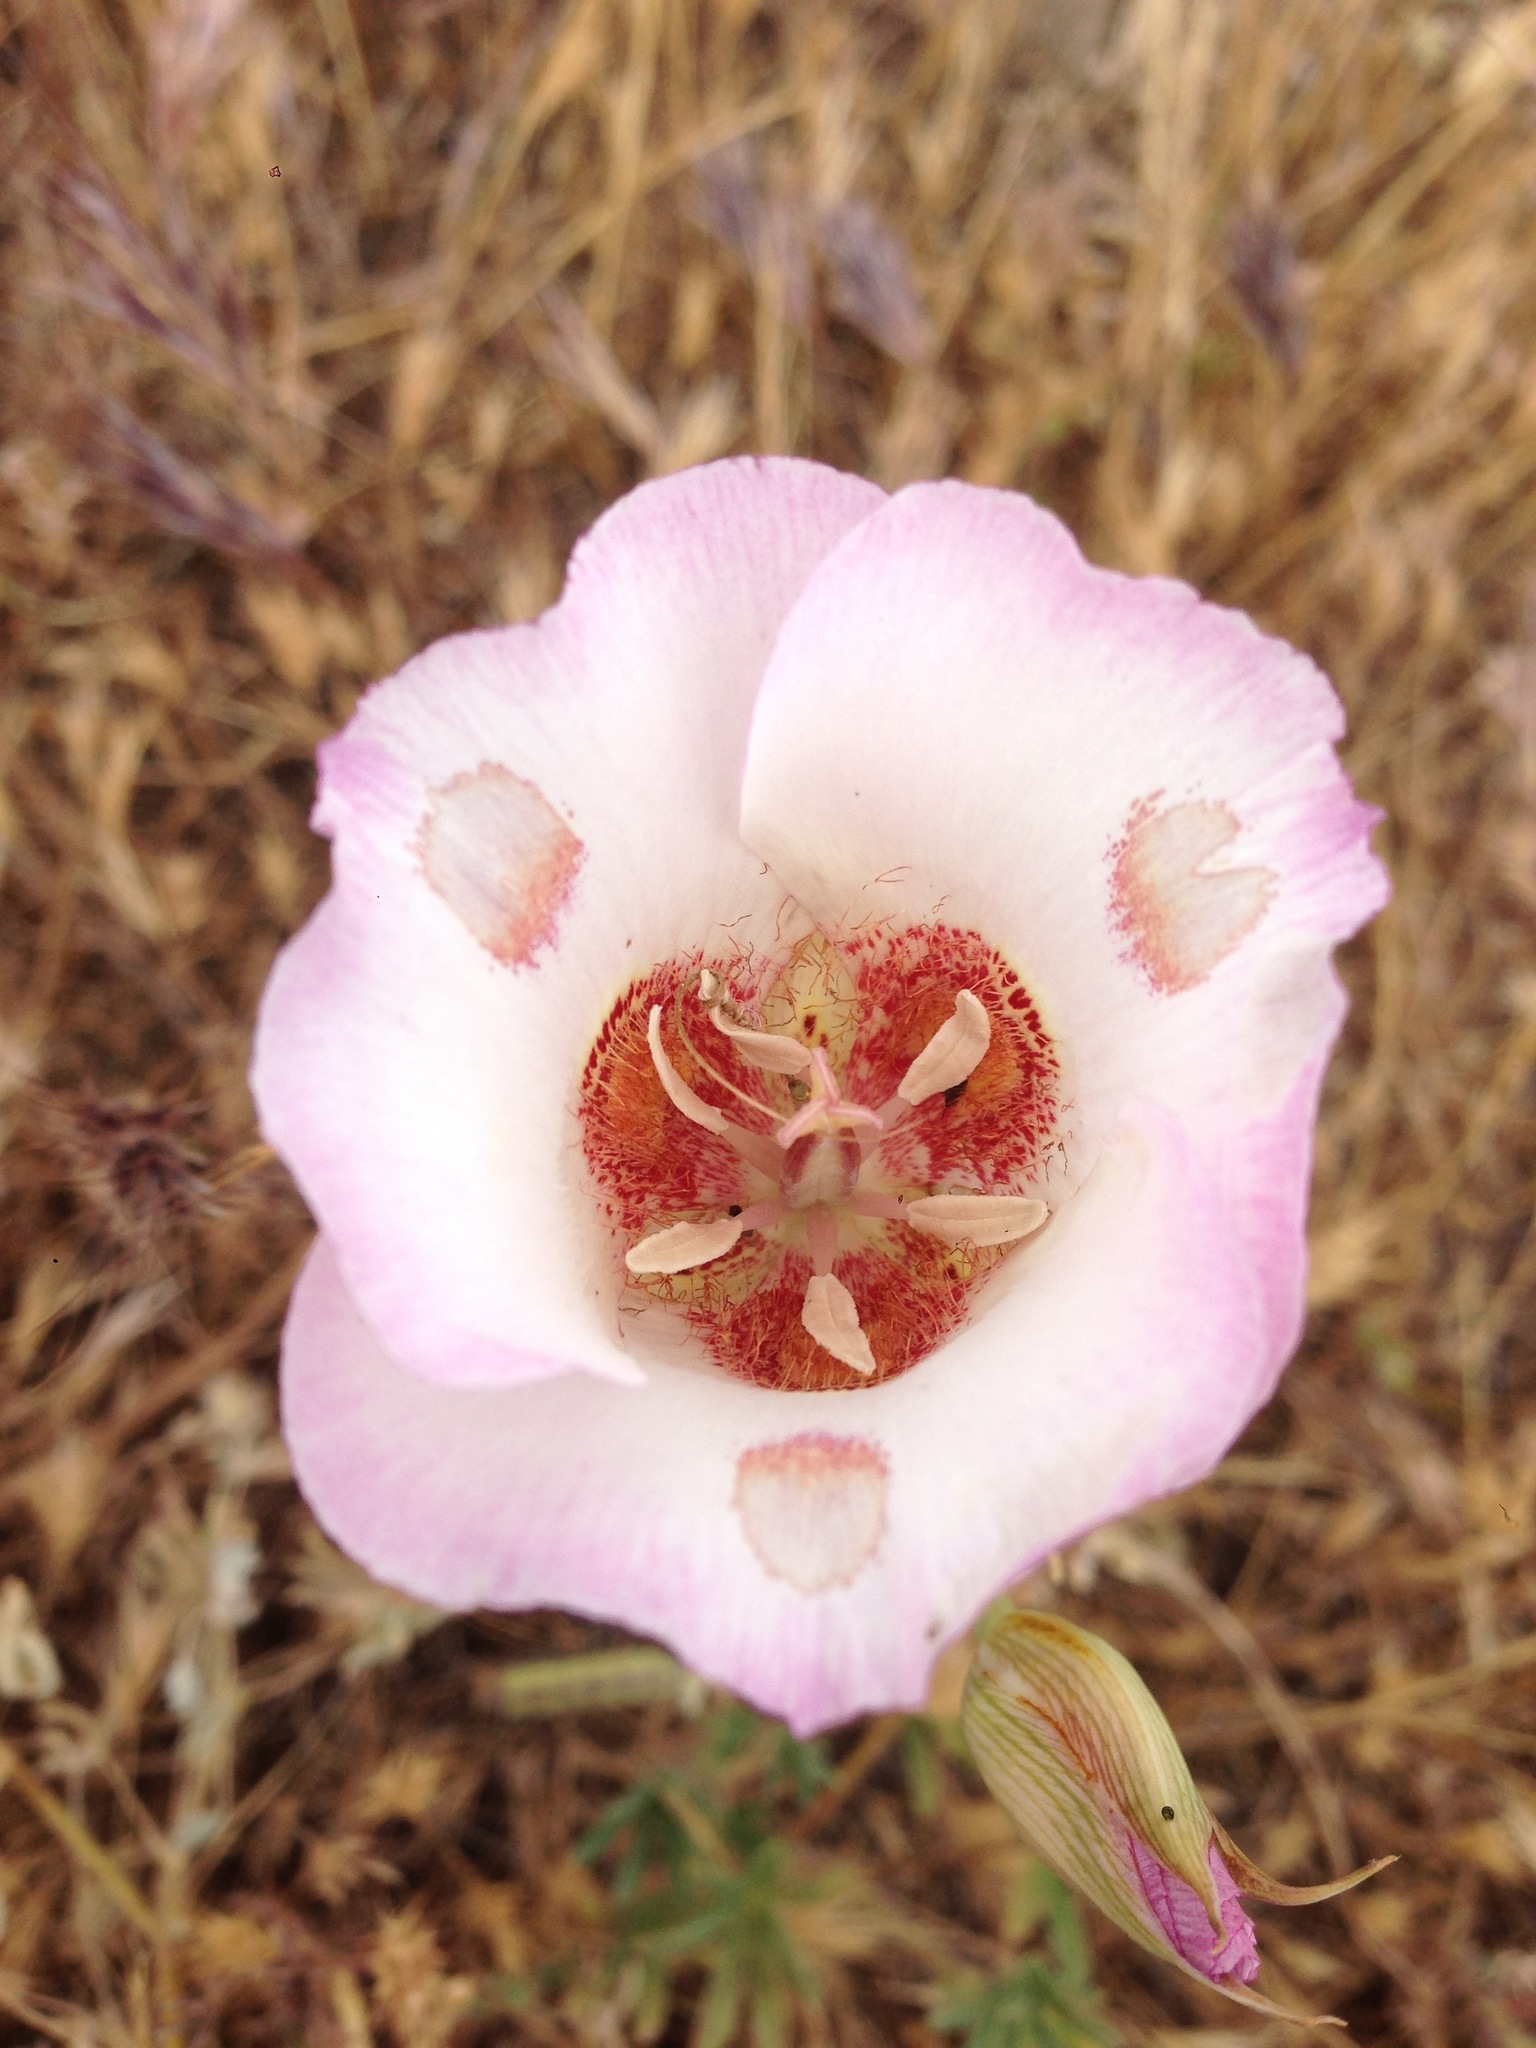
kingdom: Plantae
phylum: Tracheophyta
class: Liliopsida
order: Liliales
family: Liliaceae
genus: Calochortus
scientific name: Calochortus venustus
